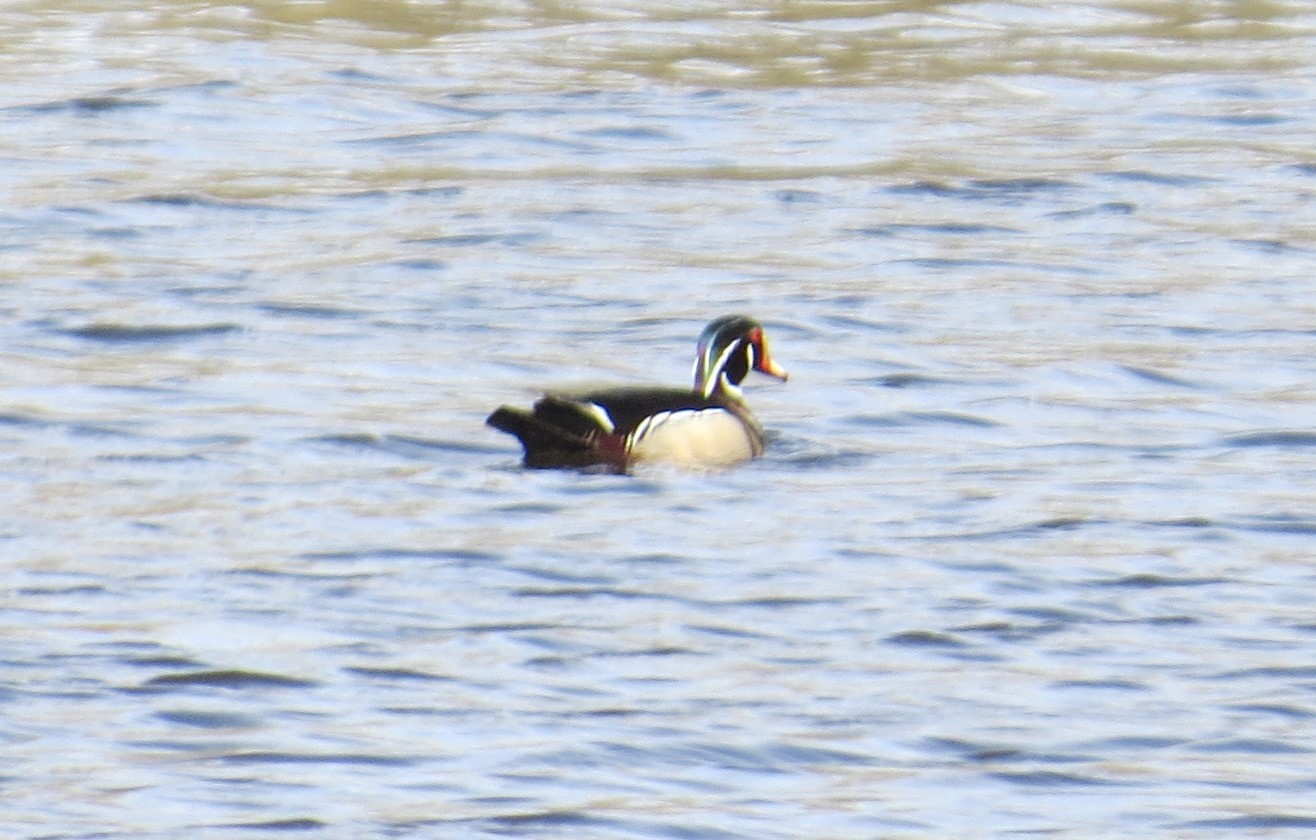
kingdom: Animalia
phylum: Chordata
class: Aves
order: Anseriformes
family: Anatidae
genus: Aix
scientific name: Aix sponsa
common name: Wood duck
